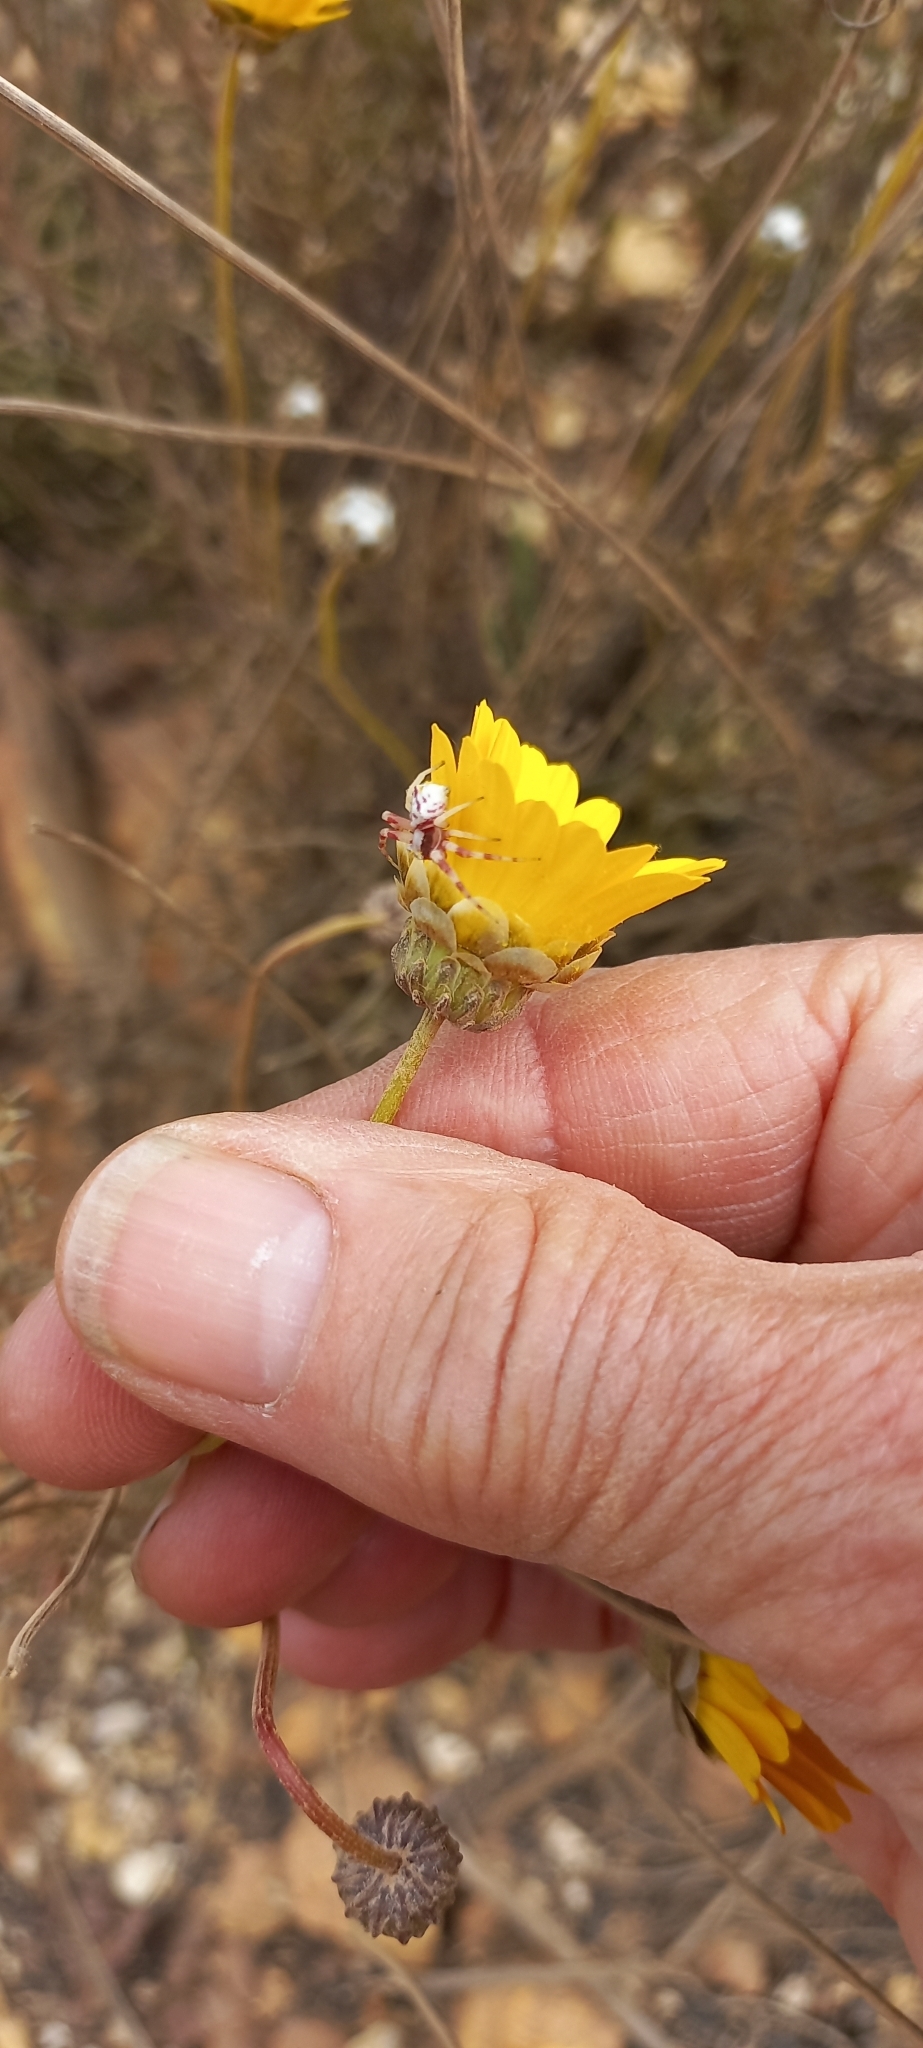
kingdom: Plantae
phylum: Tracheophyta
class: Magnoliopsida
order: Asterales
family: Asteraceae
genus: Ursinia
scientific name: Ursinia paleacea
